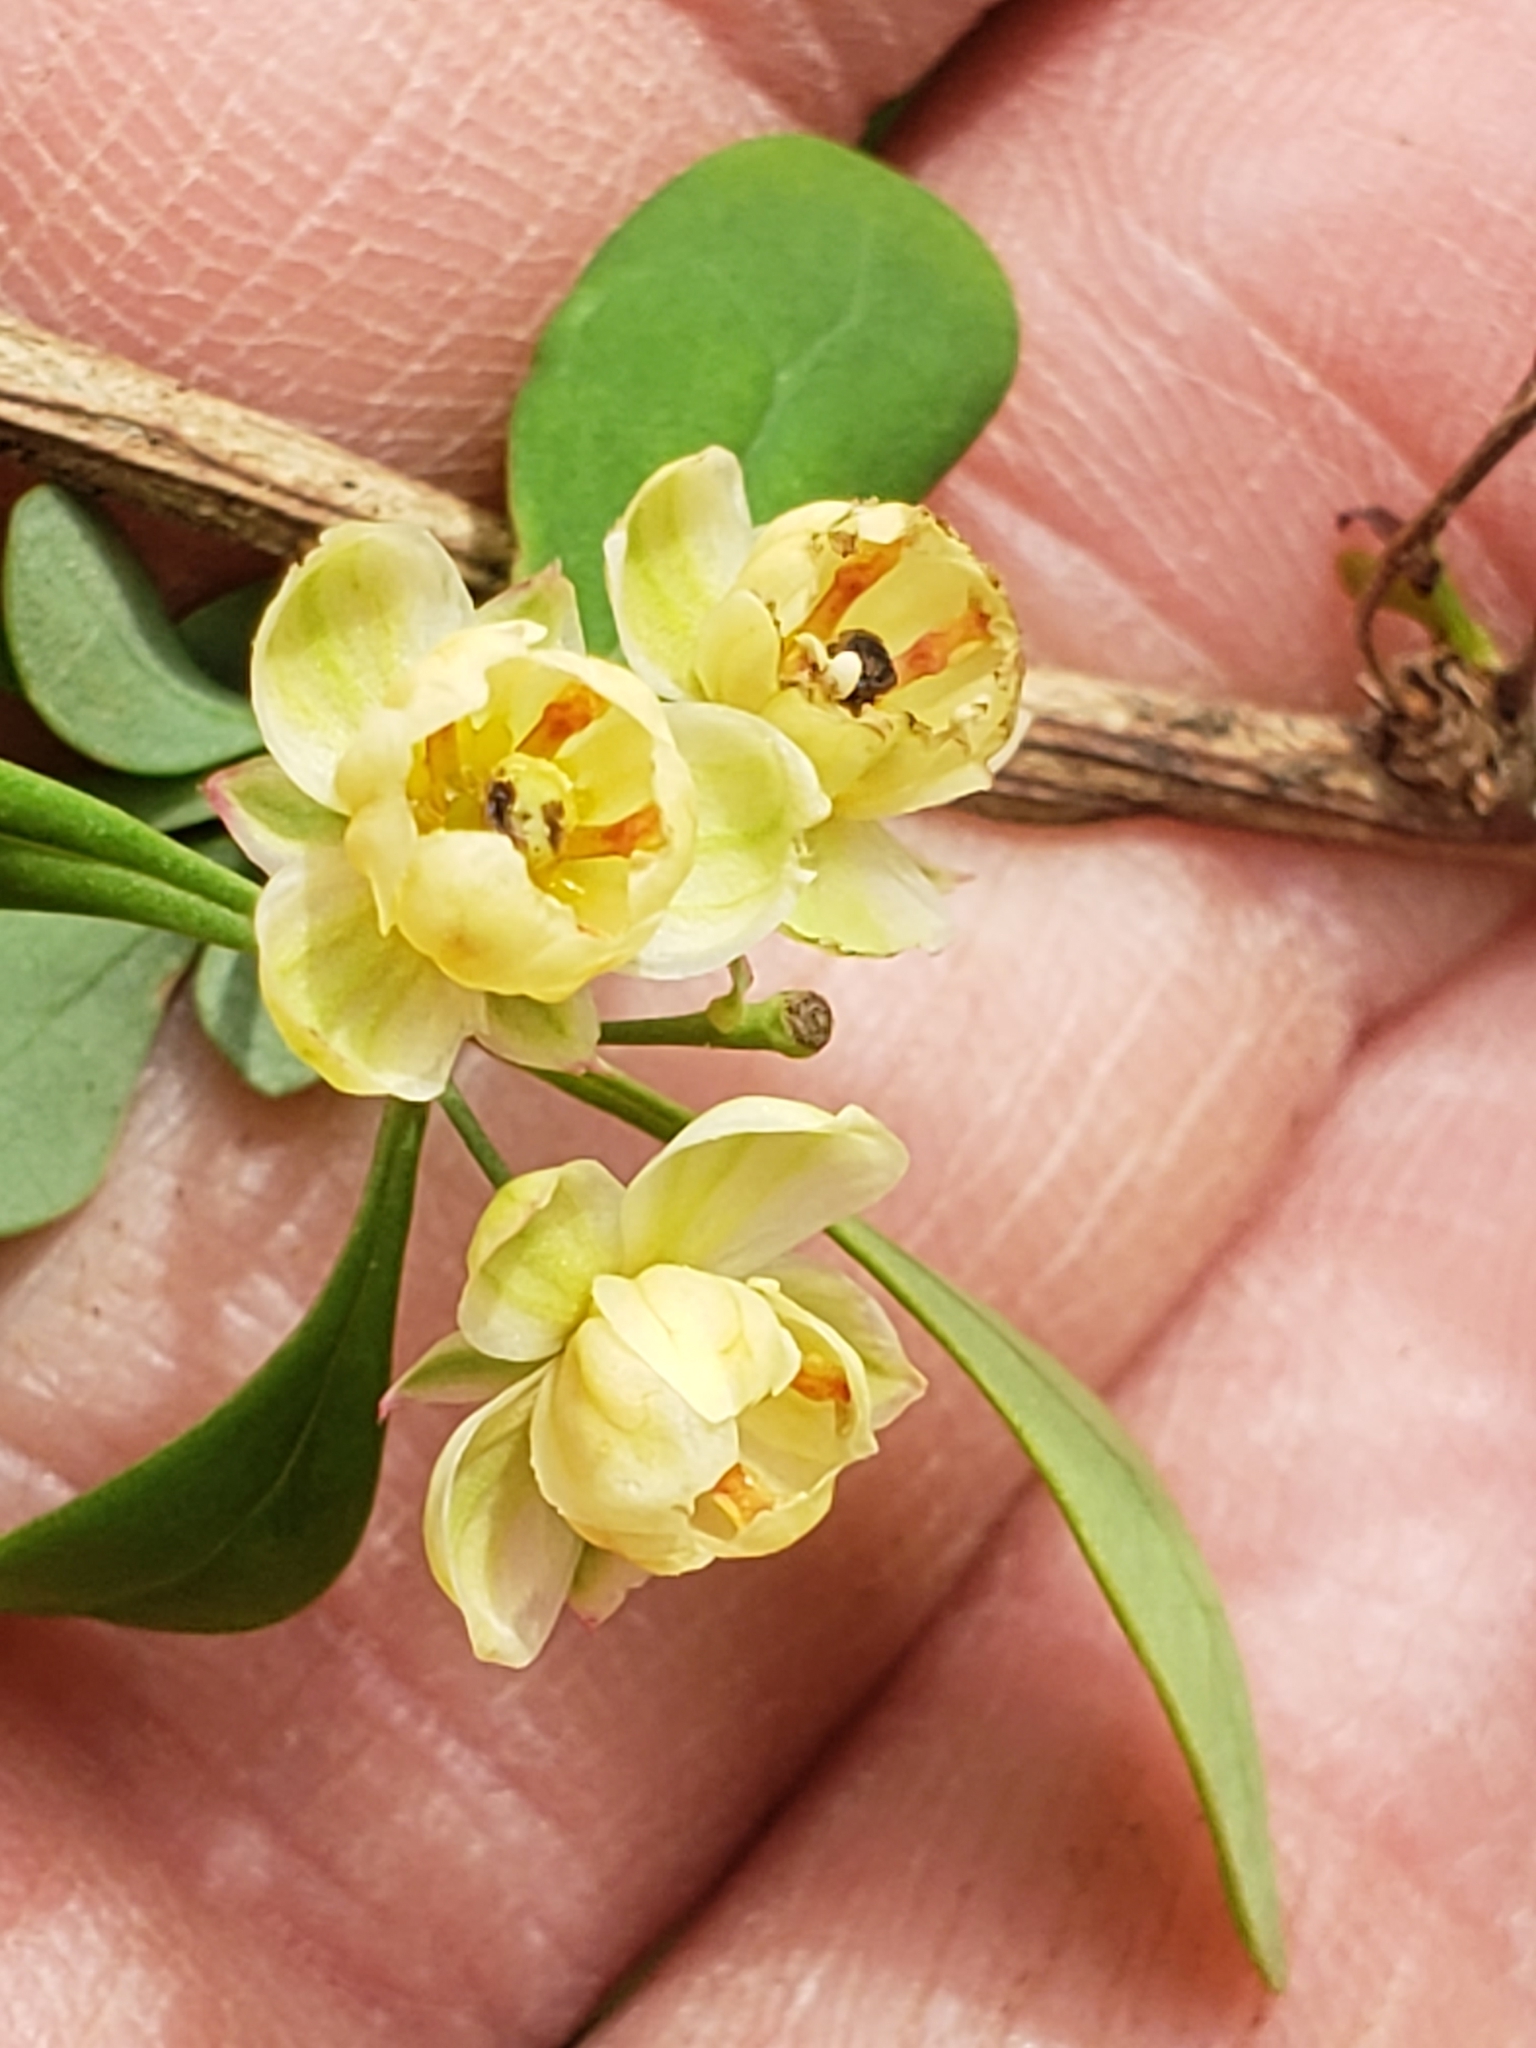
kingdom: Plantae
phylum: Tracheophyta
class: Magnoliopsida
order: Ranunculales
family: Berberidaceae
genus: Berberis
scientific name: Berberis thunbergii
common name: Japanese barberry
